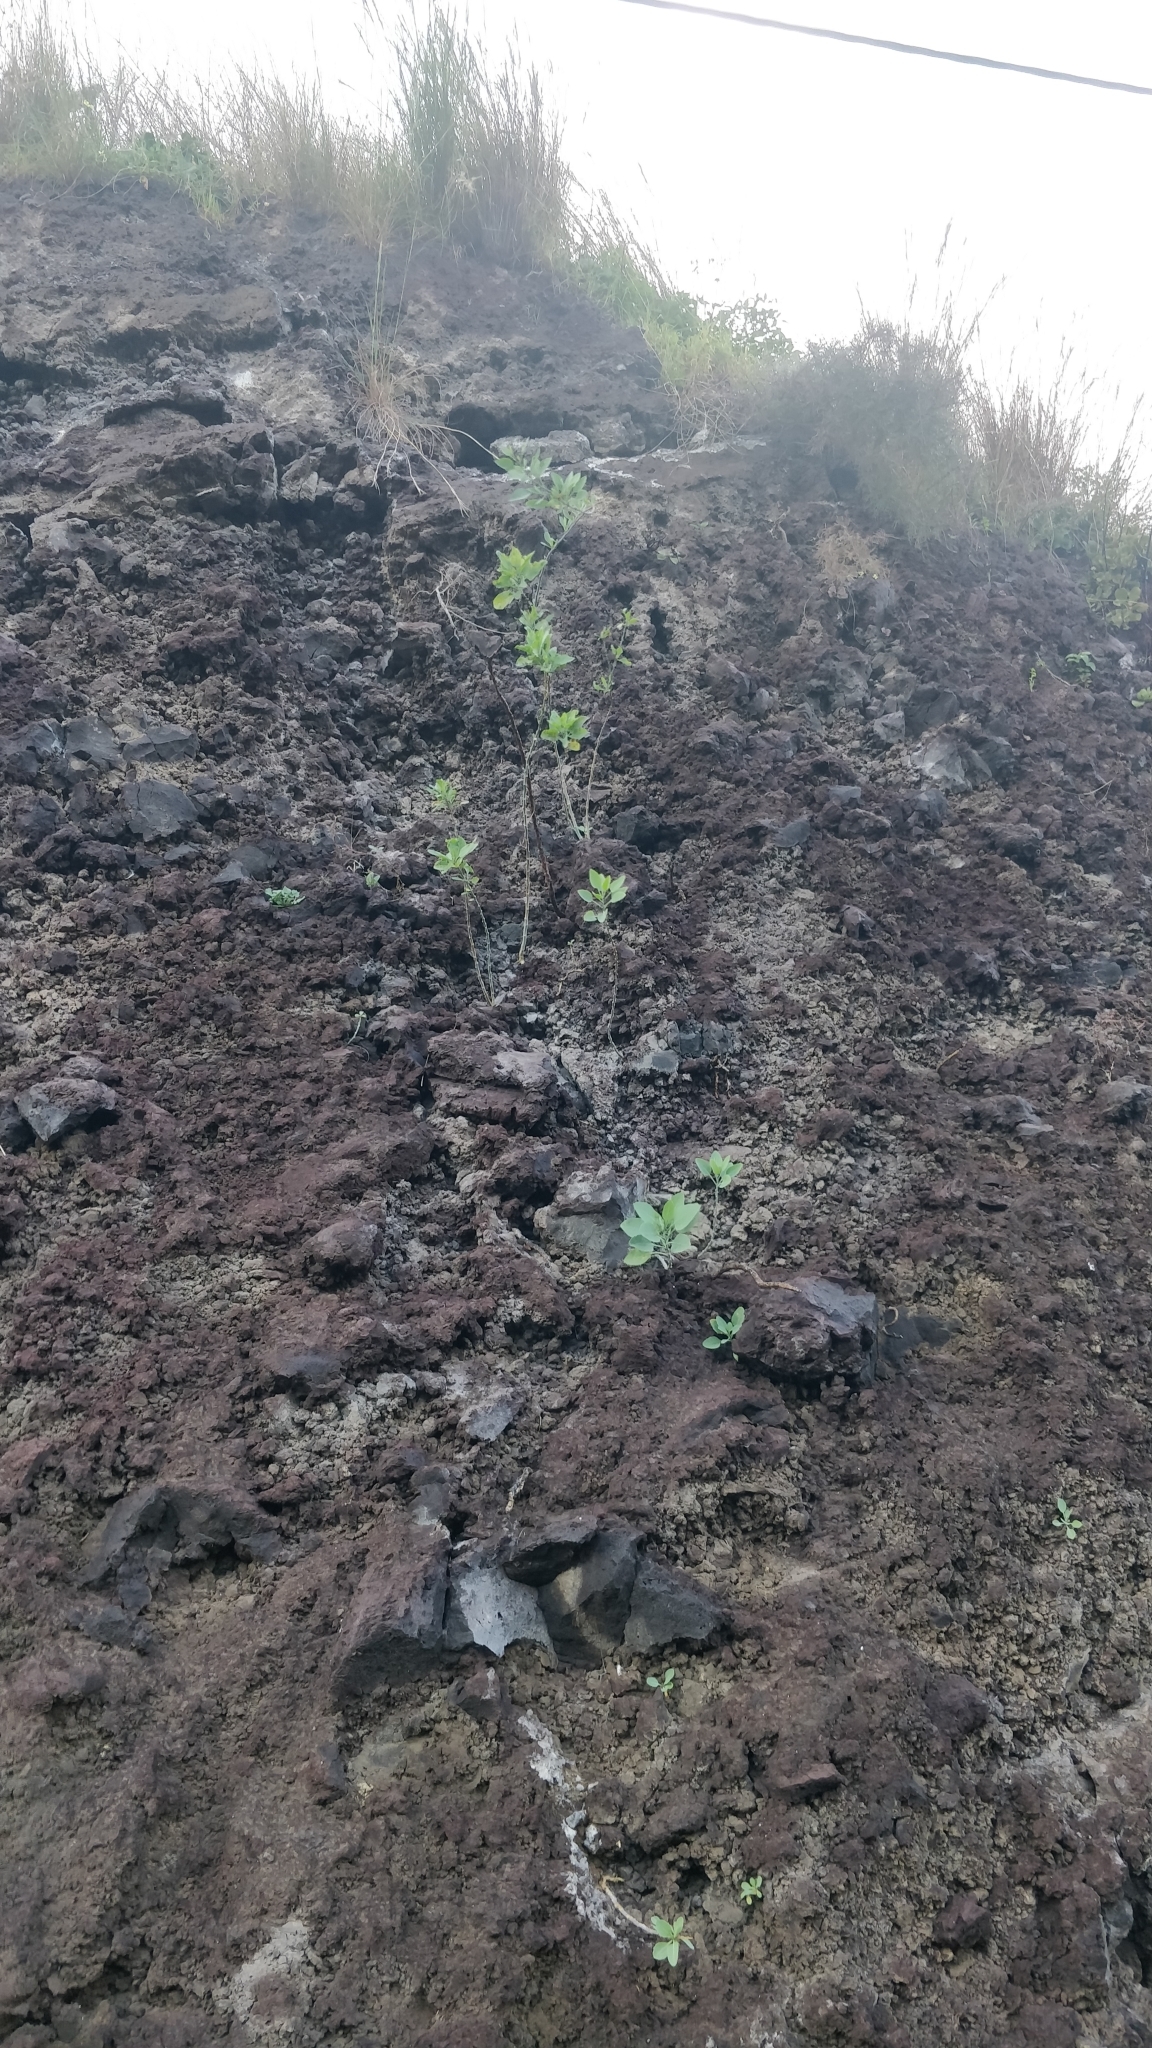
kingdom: Plantae
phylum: Tracheophyta
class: Magnoliopsida
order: Solanales
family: Solanaceae
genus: Nicotiana
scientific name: Nicotiana glauca
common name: Tree tobacco
